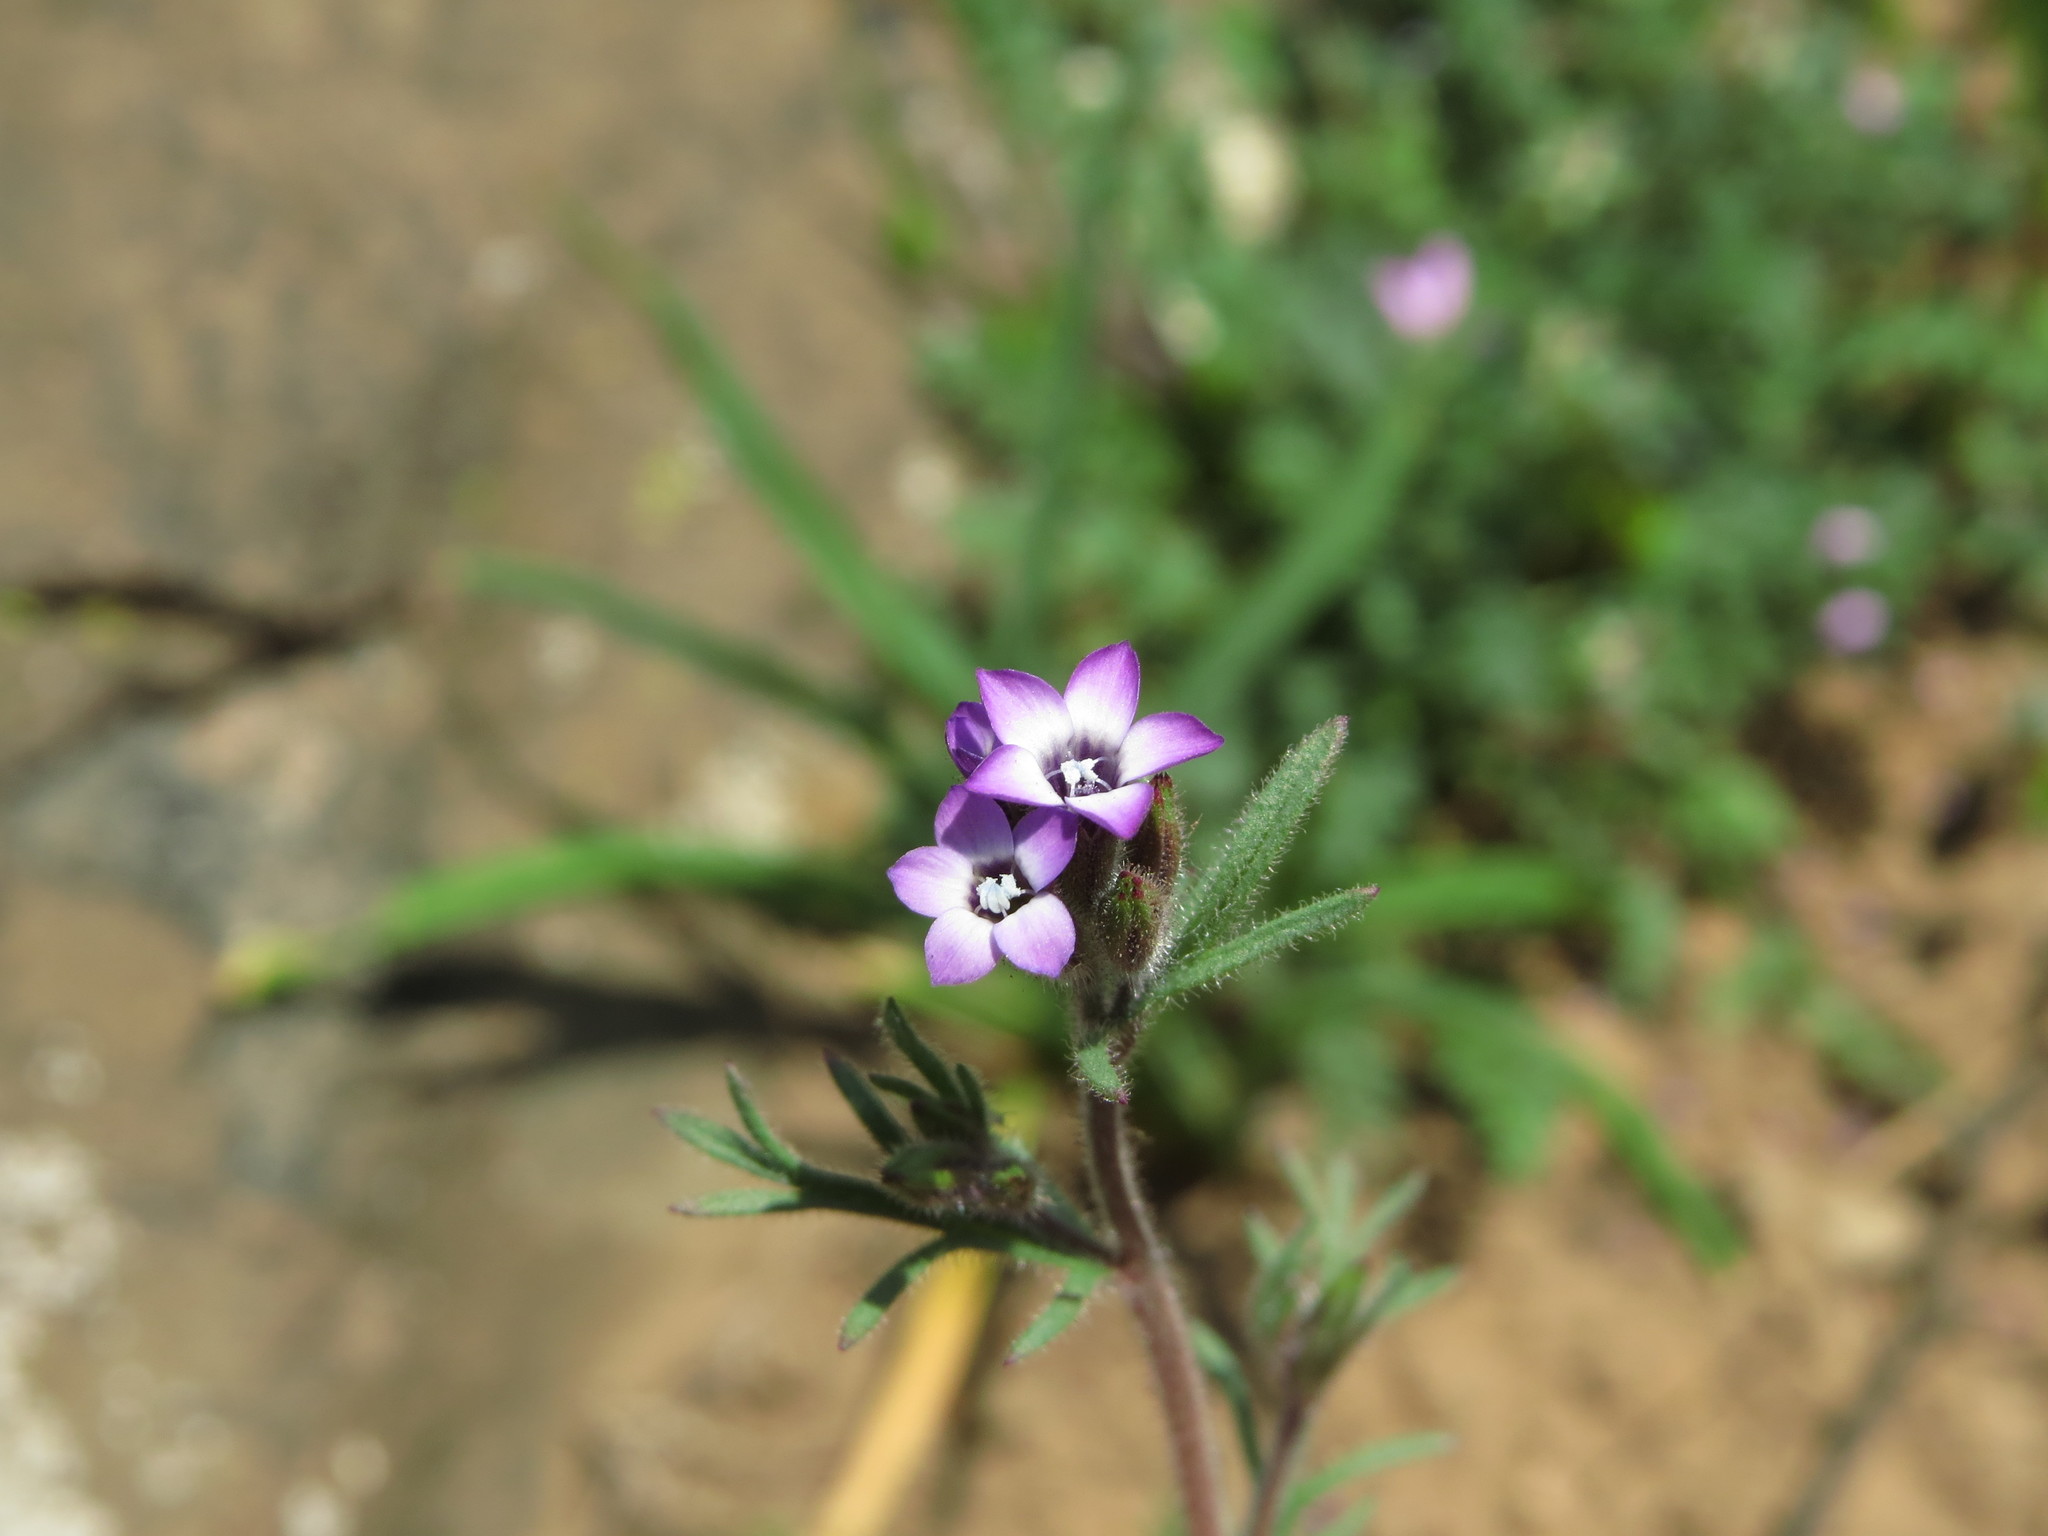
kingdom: Plantae
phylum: Tracheophyta
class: Magnoliopsida
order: Ericales
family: Polemoniaceae
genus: Gilia
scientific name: Gilia laciniata
